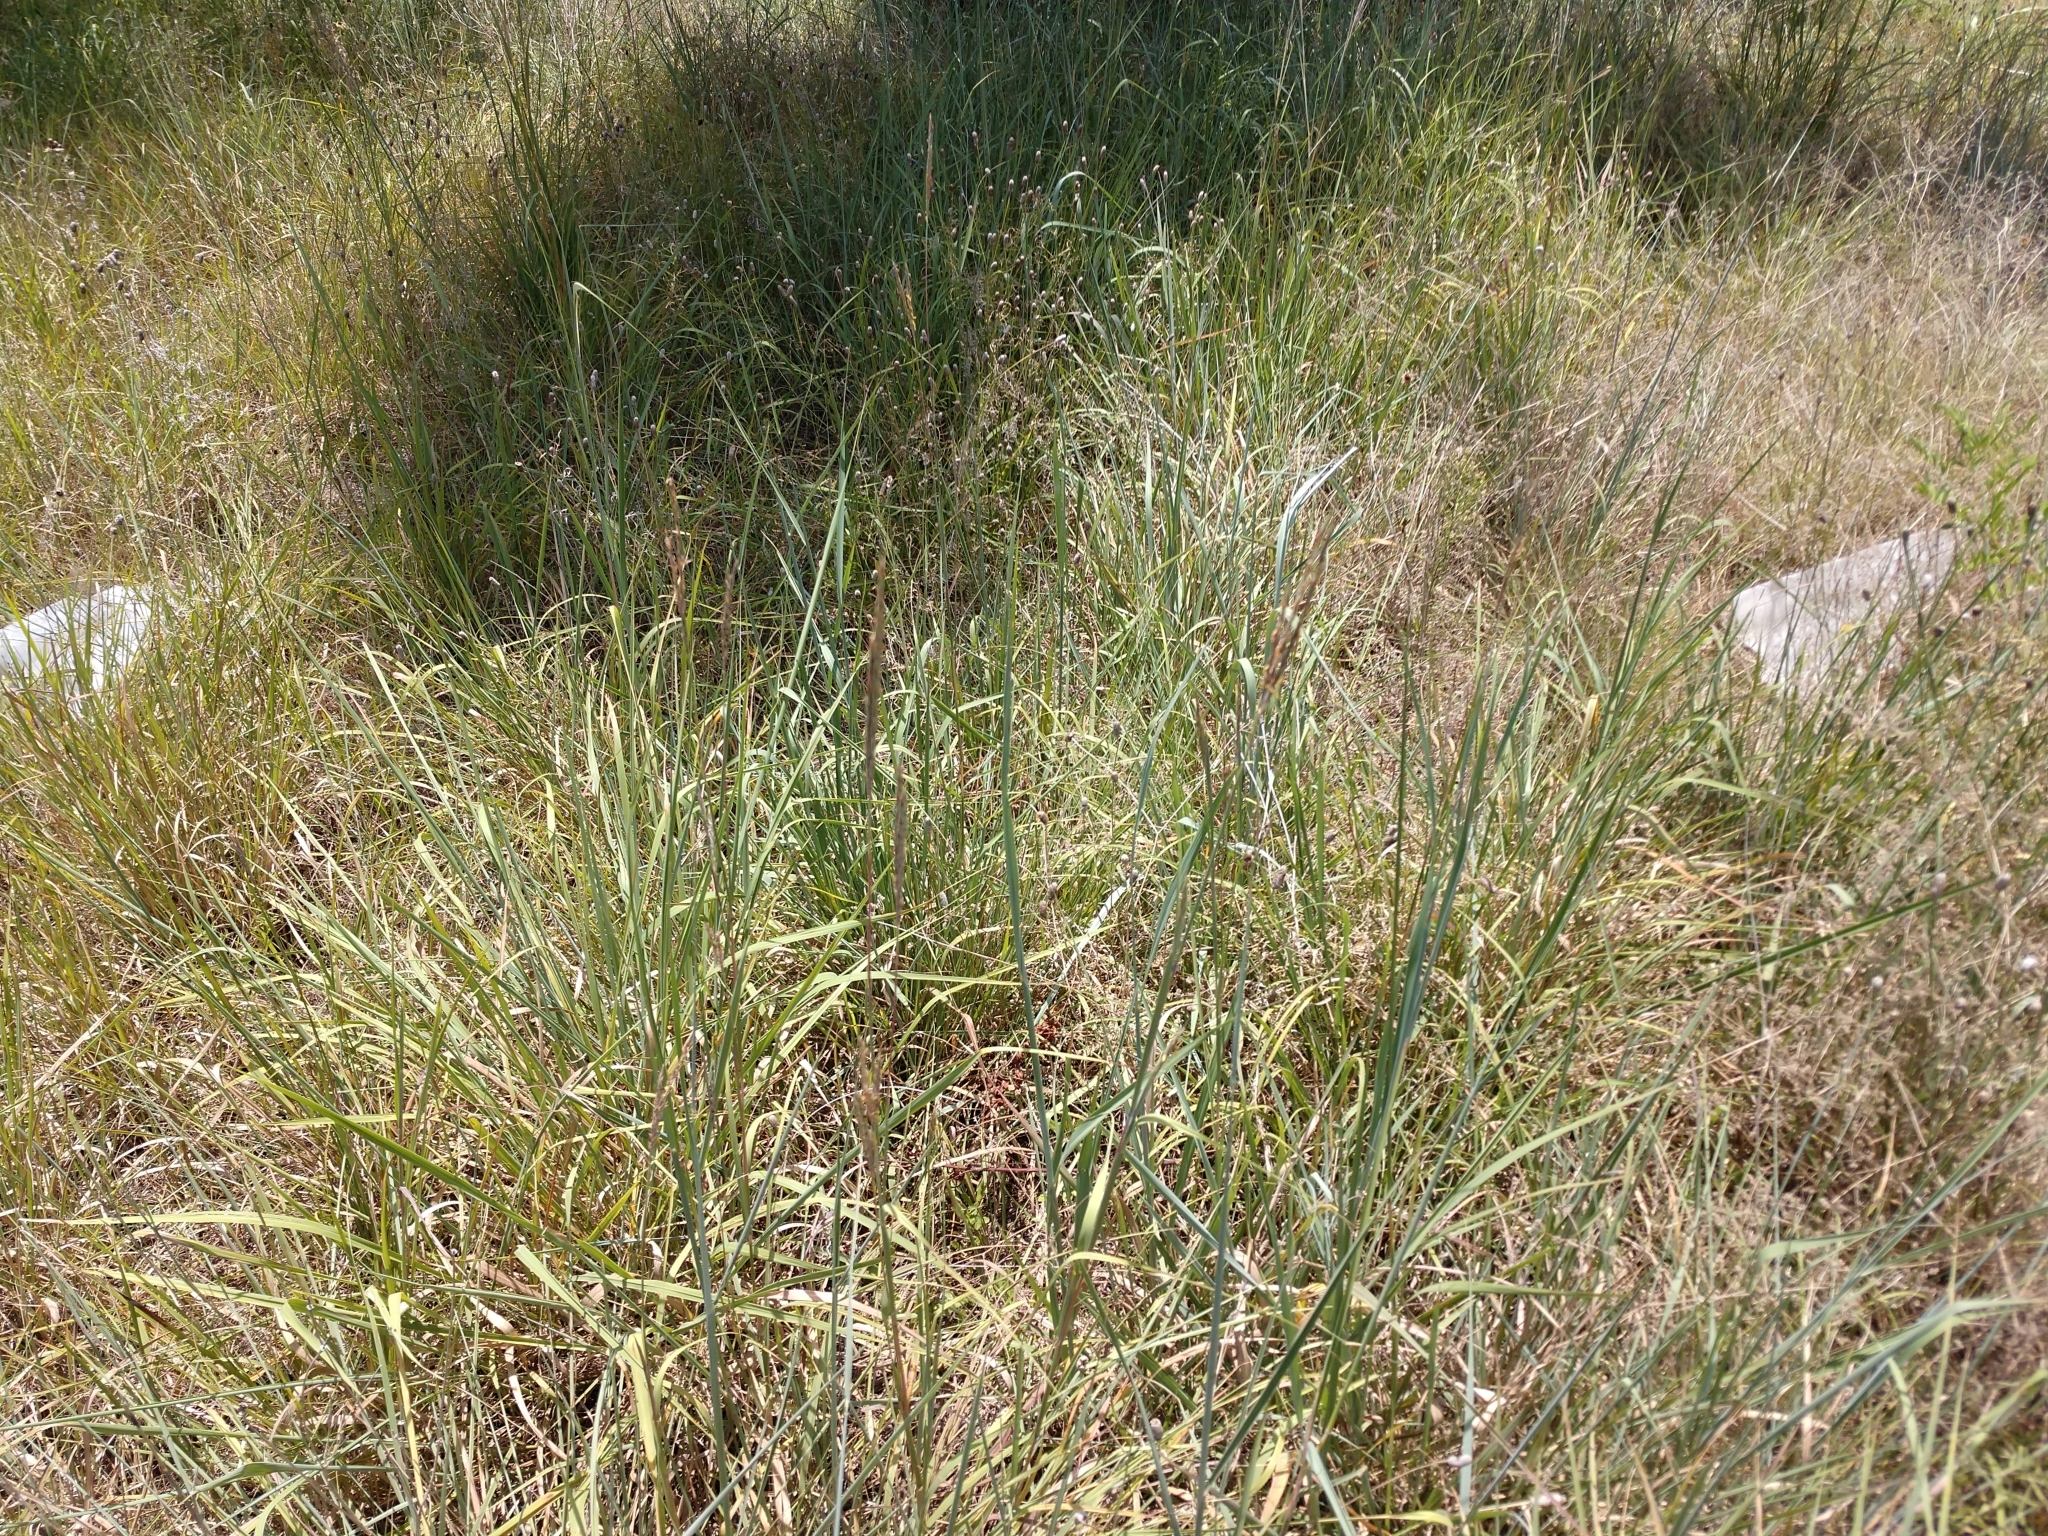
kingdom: Plantae
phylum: Tracheophyta
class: Liliopsida
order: Poales
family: Poaceae
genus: Andropogon
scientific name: Andropogon gerardi
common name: Big bluestem
